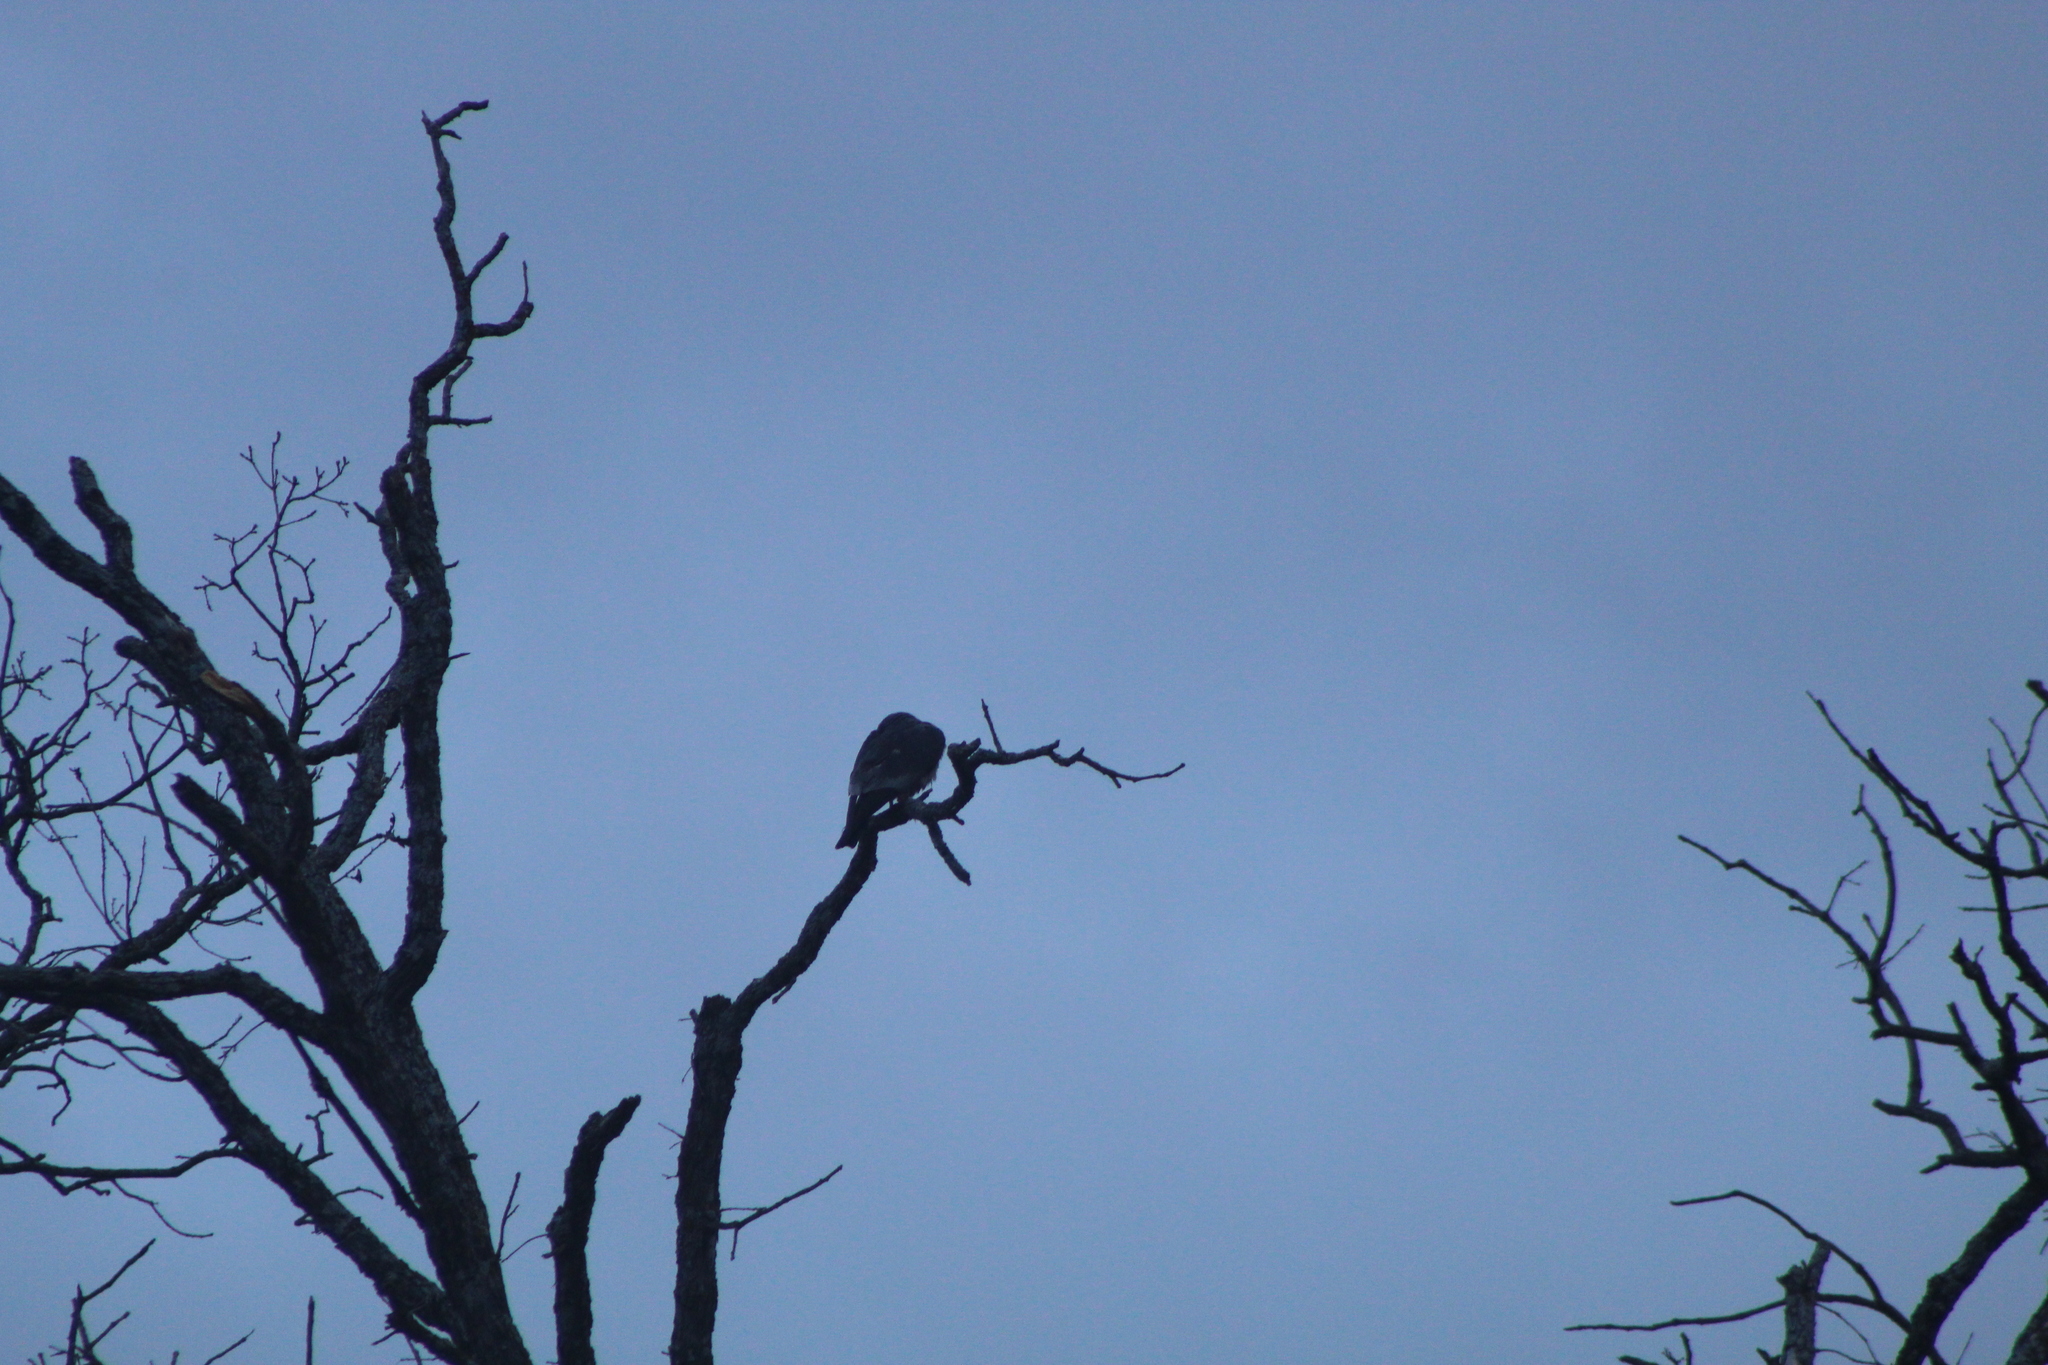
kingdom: Animalia
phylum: Chordata
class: Aves
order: Accipitriformes
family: Accipitridae
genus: Ictinia
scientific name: Ictinia mississippiensis
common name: Mississippi kite
